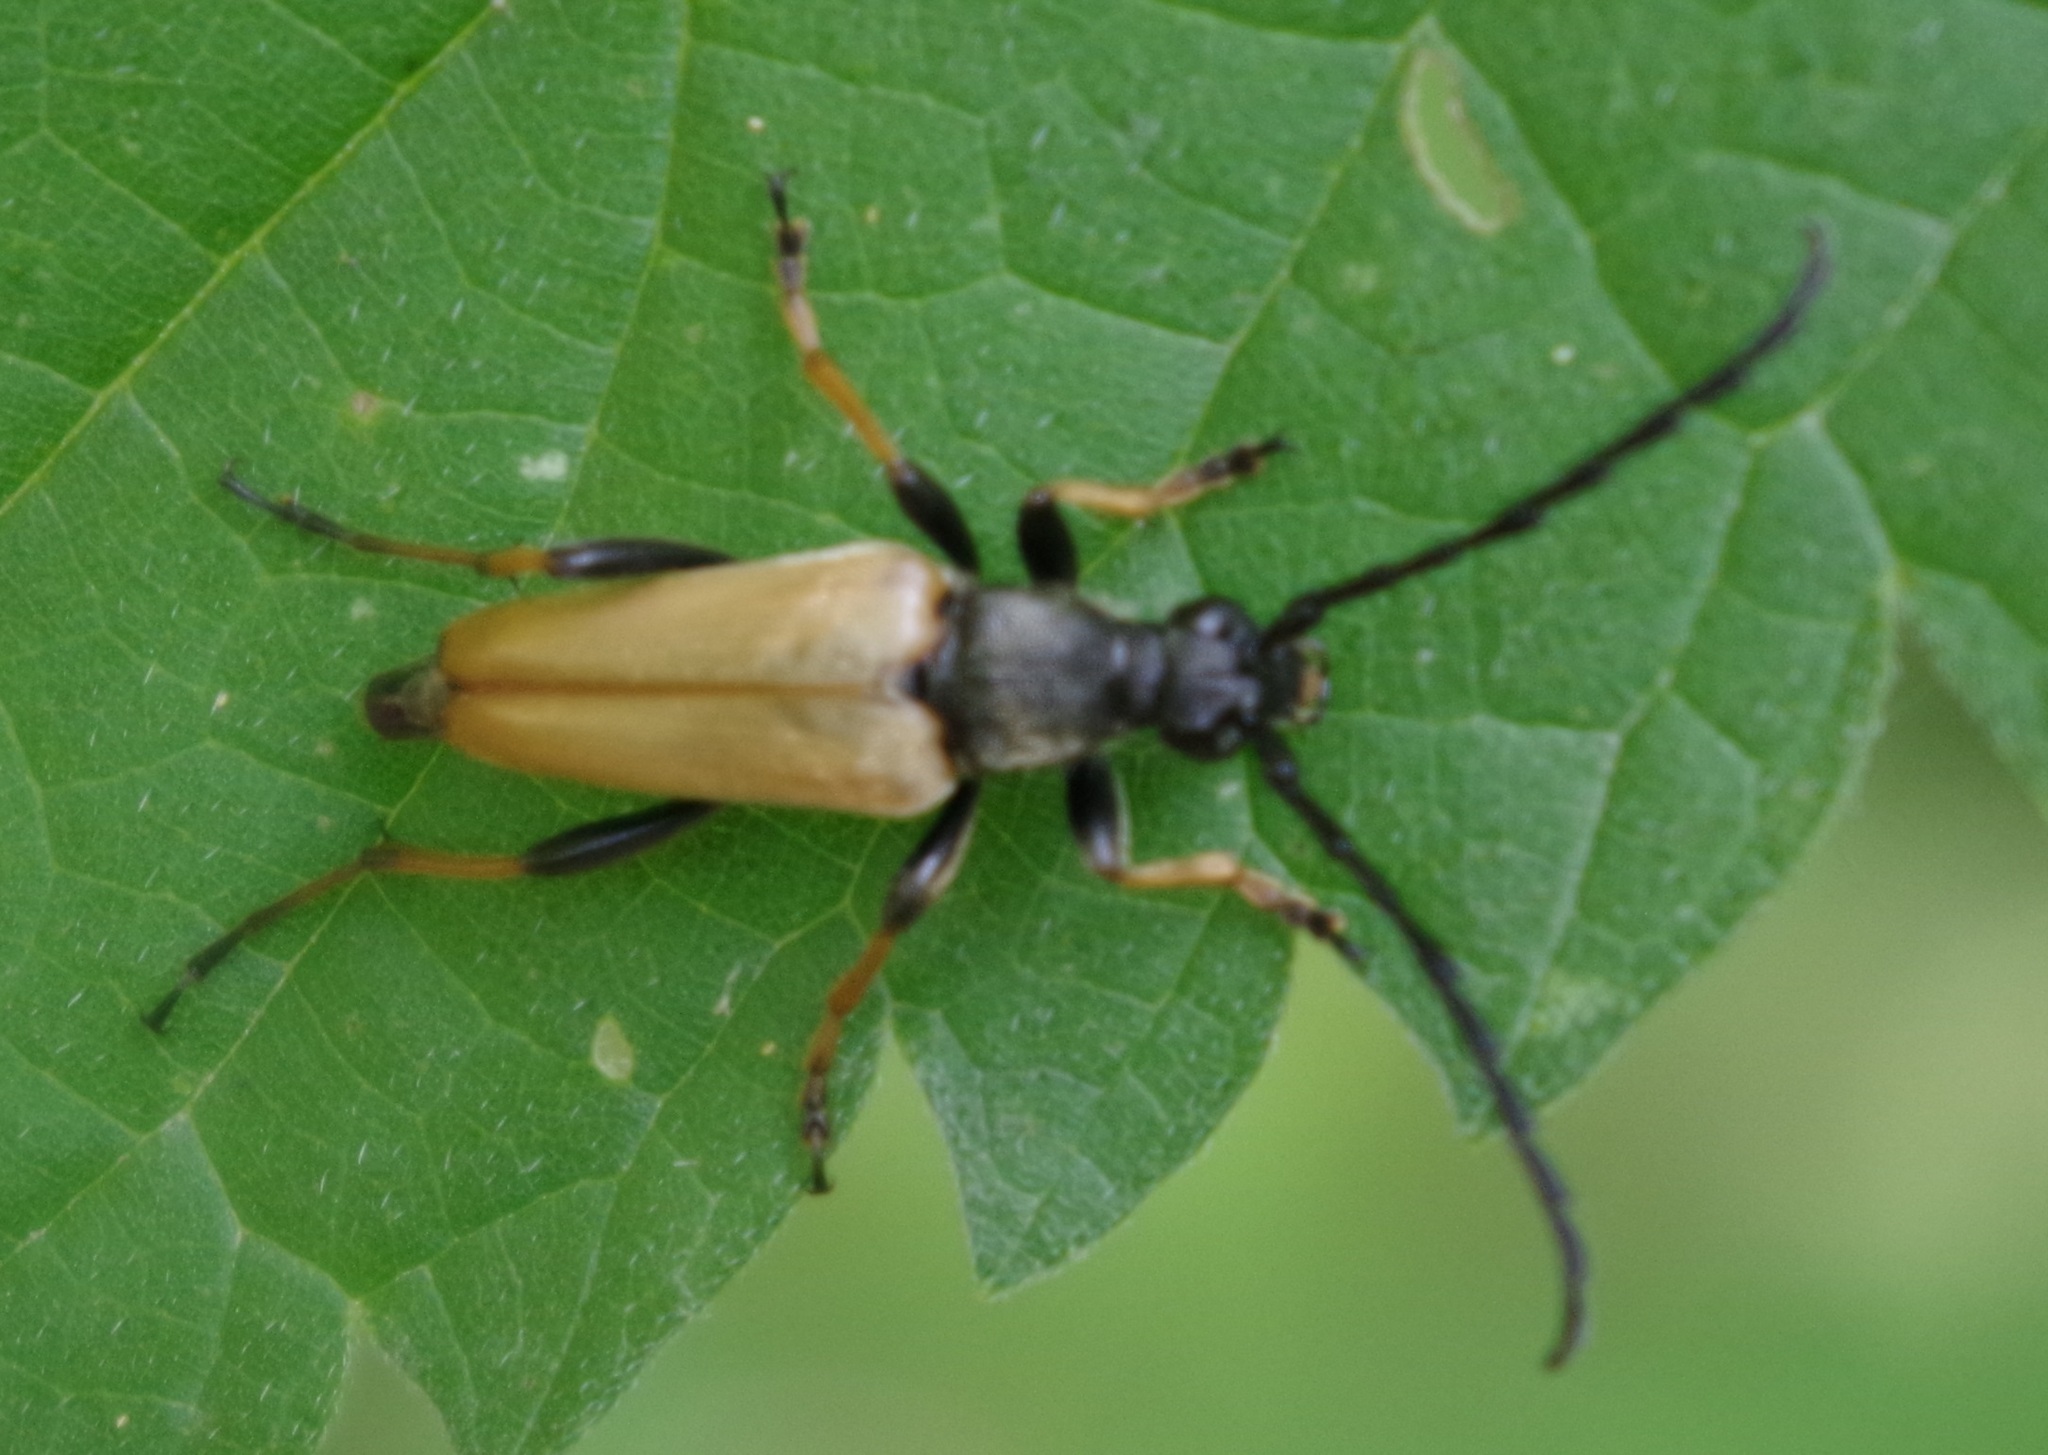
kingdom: Animalia
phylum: Arthropoda
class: Insecta
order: Coleoptera
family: Cerambycidae
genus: Stictoleptura
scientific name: Stictoleptura rubra
